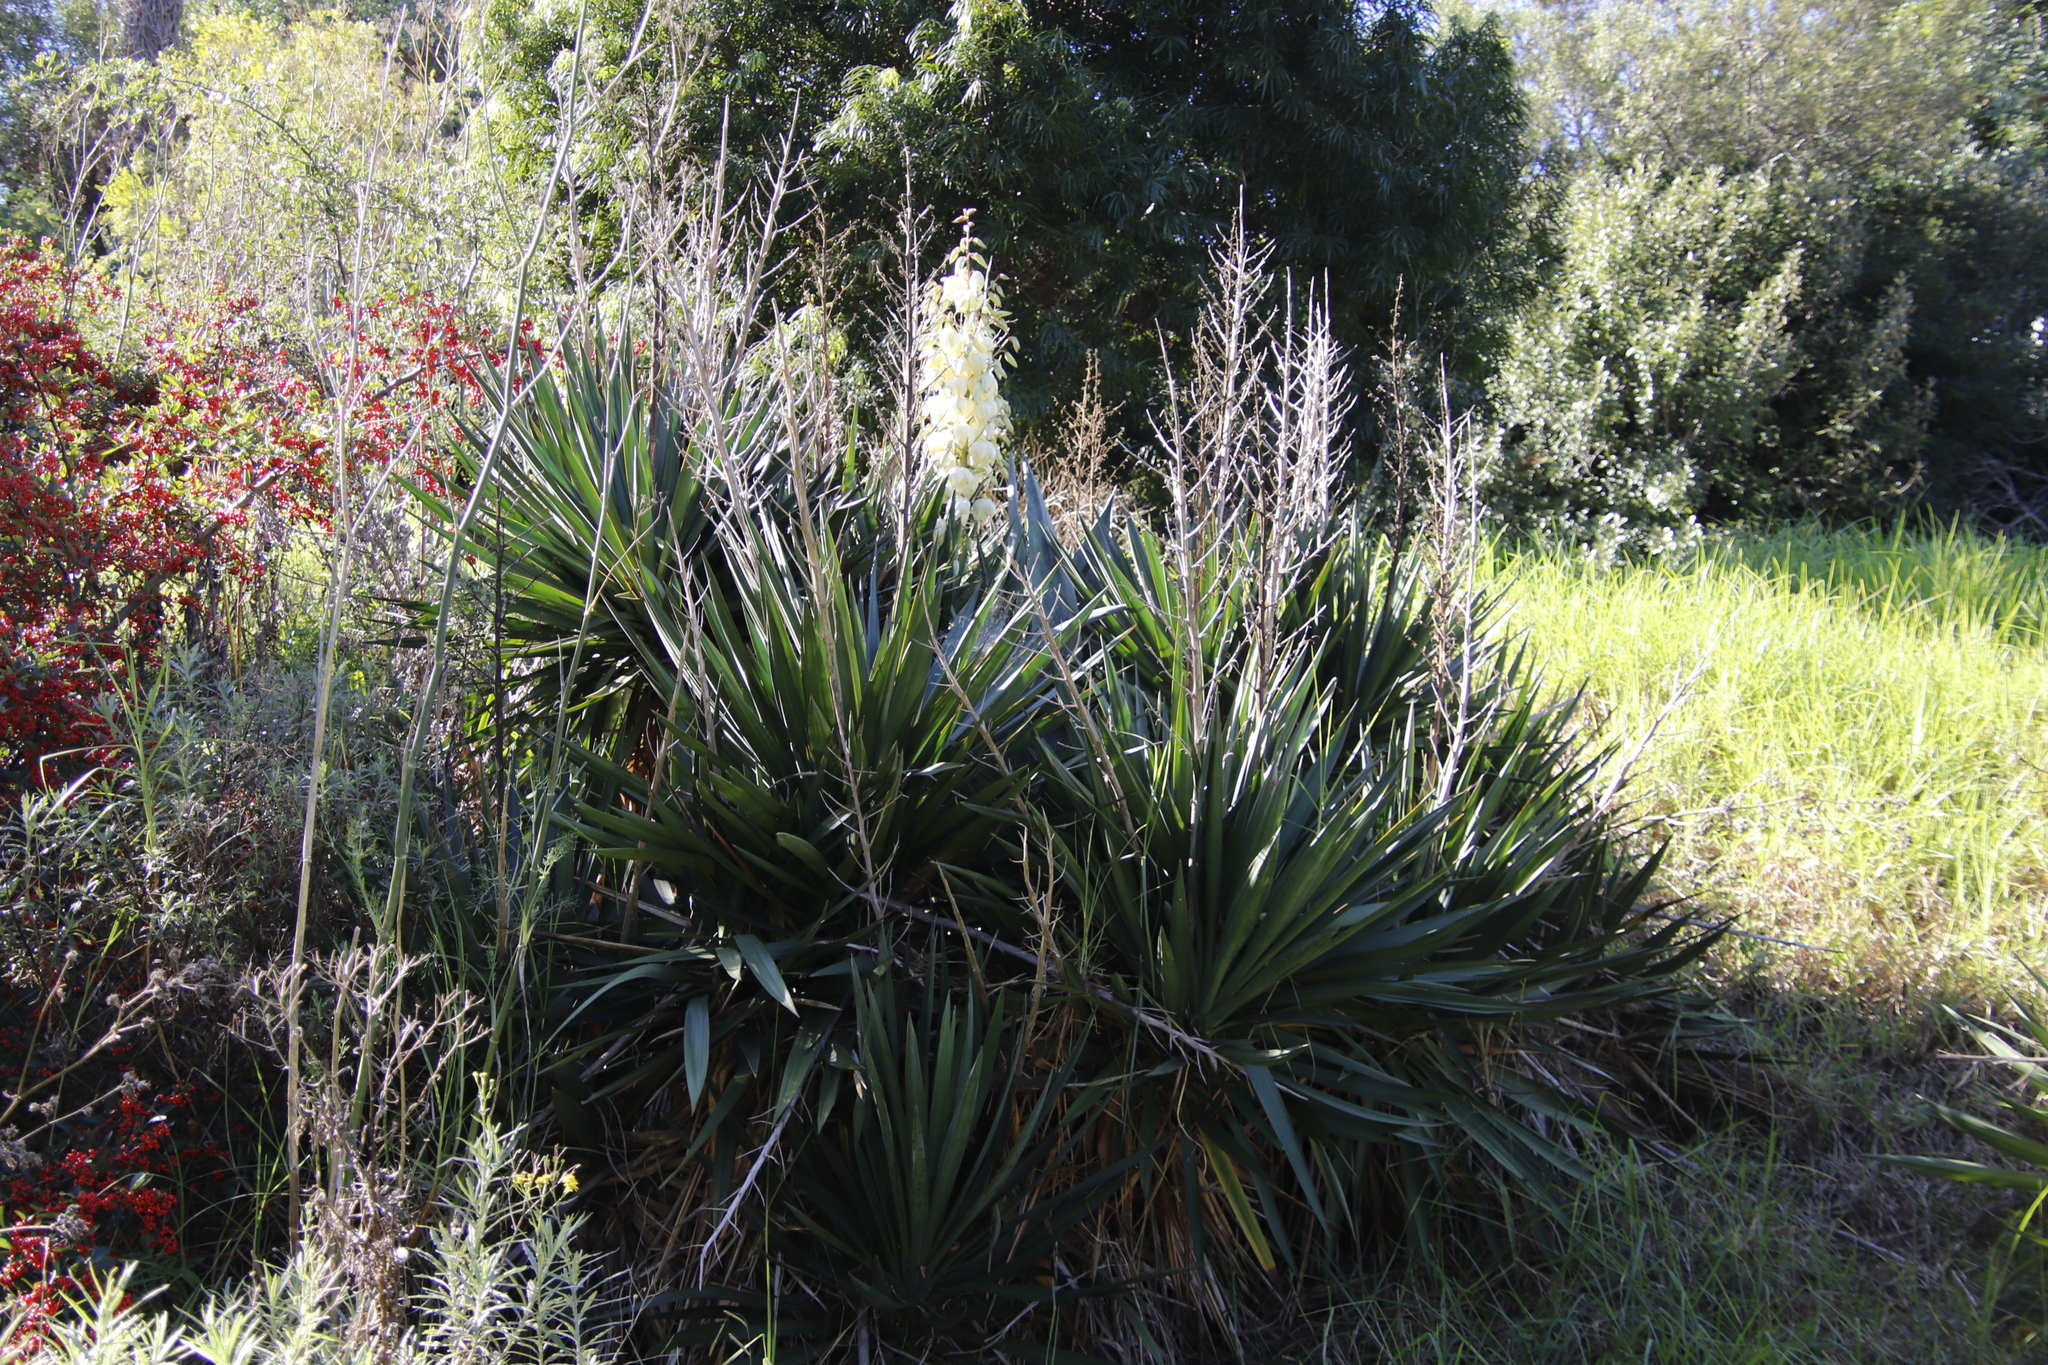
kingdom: Plantae
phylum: Tracheophyta
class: Liliopsida
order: Asparagales
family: Asparagaceae
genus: Yucca
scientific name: Yucca gloriosa
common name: Spanish-dagger
